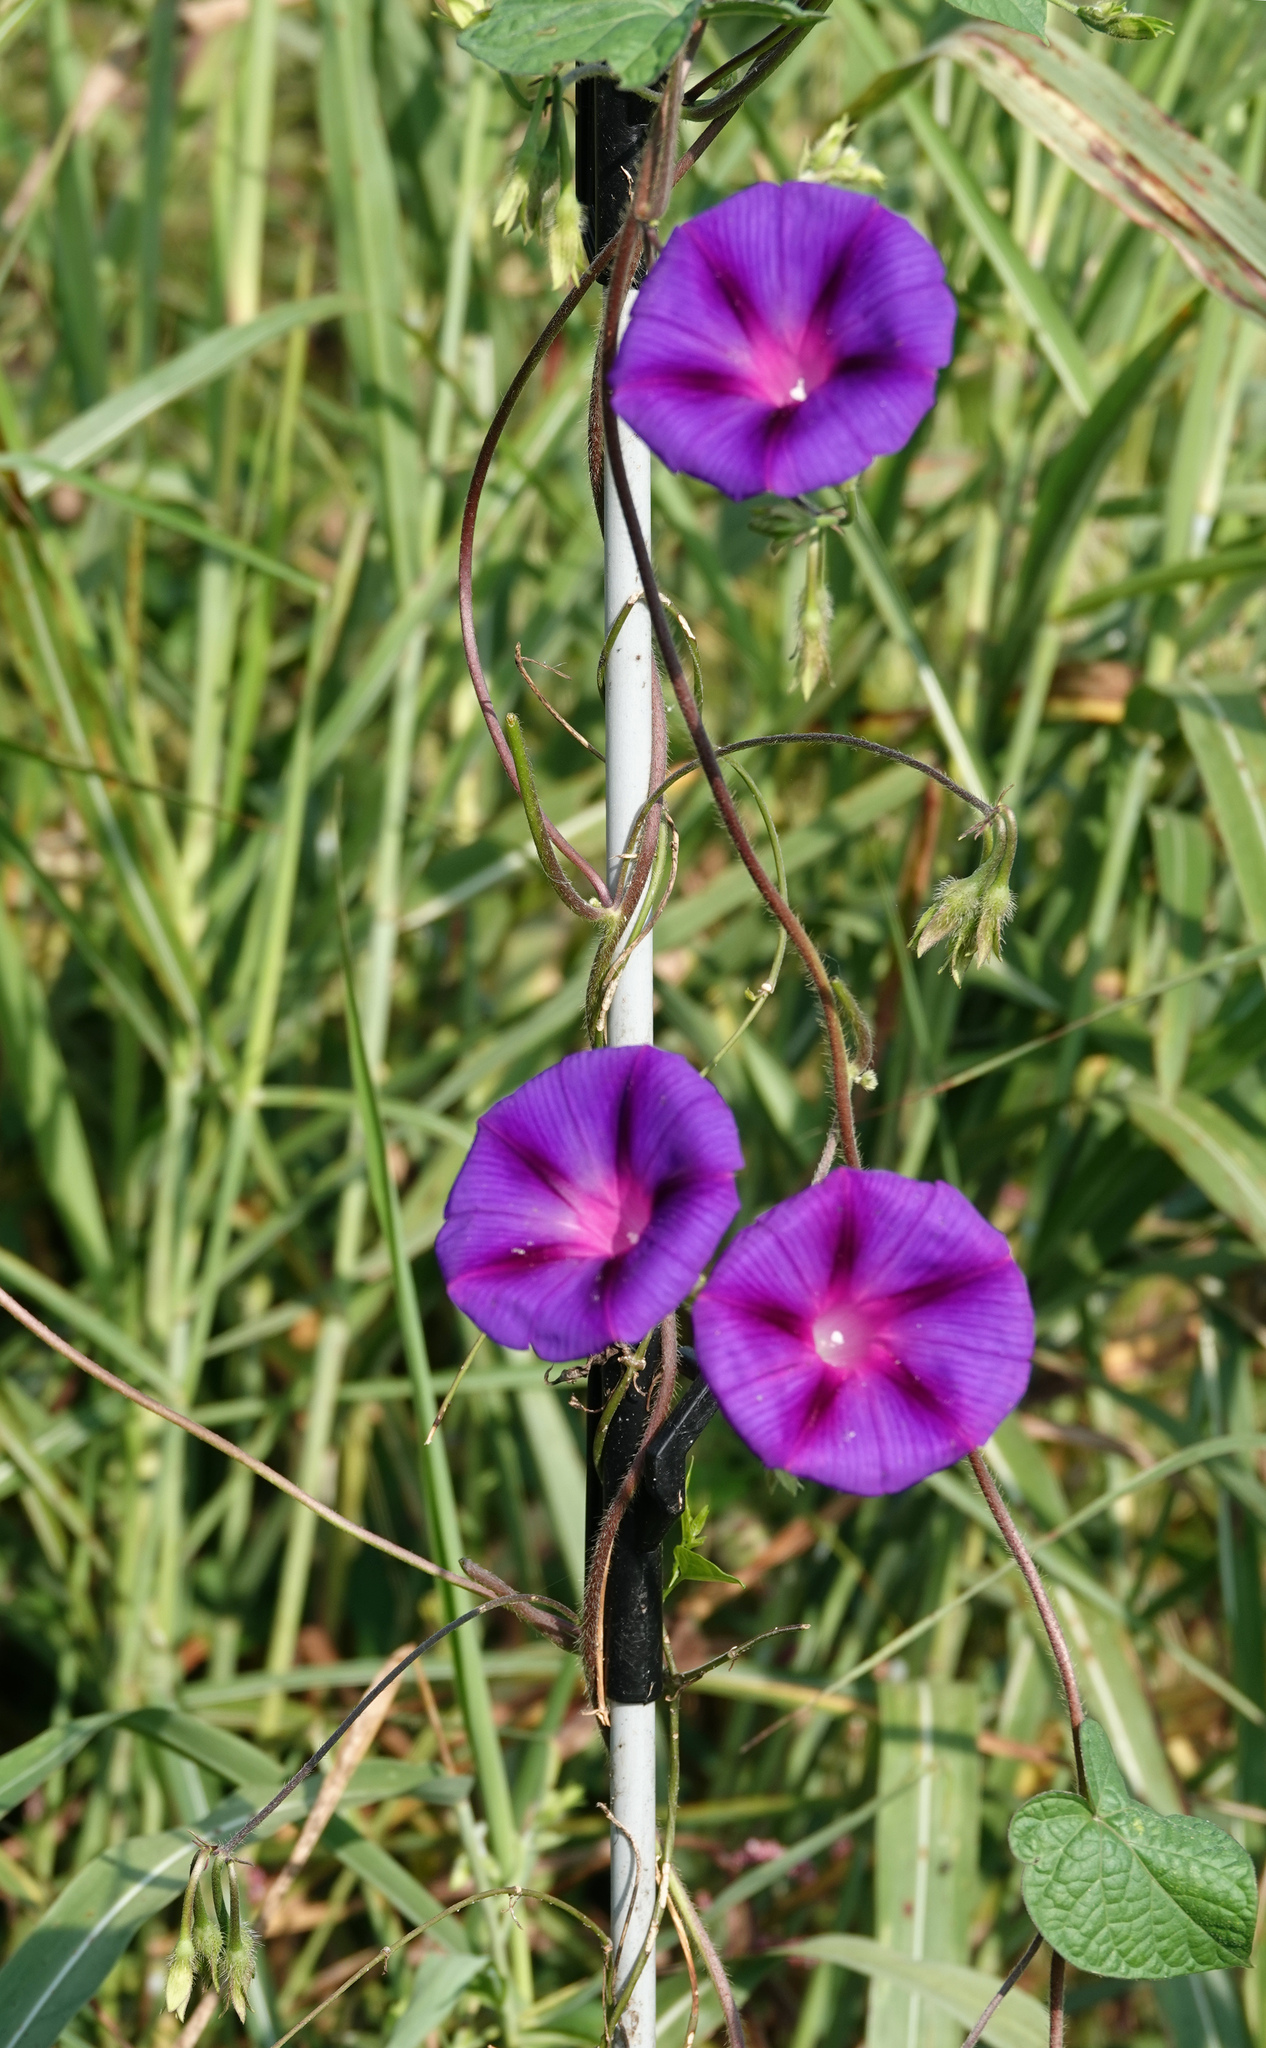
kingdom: Plantae
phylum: Tracheophyta
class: Magnoliopsida
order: Solanales
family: Convolvulaceae
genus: Ipomoea
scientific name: Ipomoea purpurea
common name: Common morning-glory
